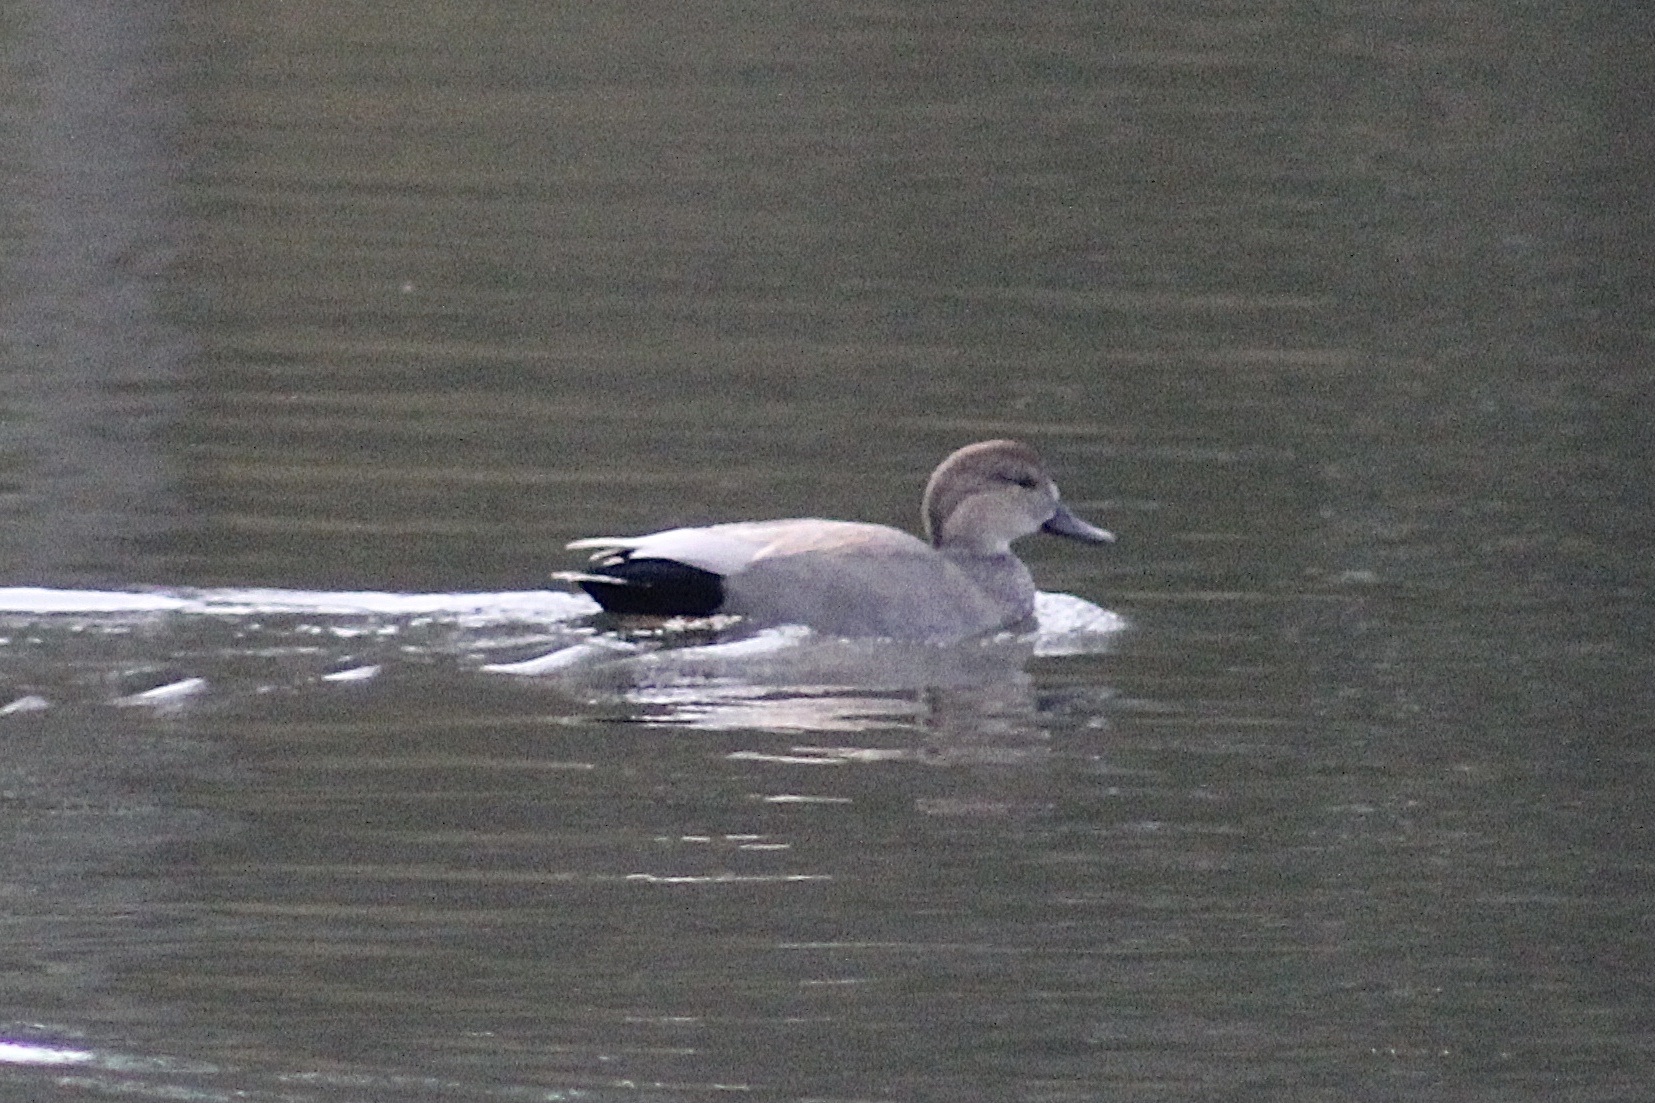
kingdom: Animalia
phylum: Chordata
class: Aves
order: Anseriformes
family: Anatidae
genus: Mareca
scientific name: Mareca strepera
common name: Gadwall
